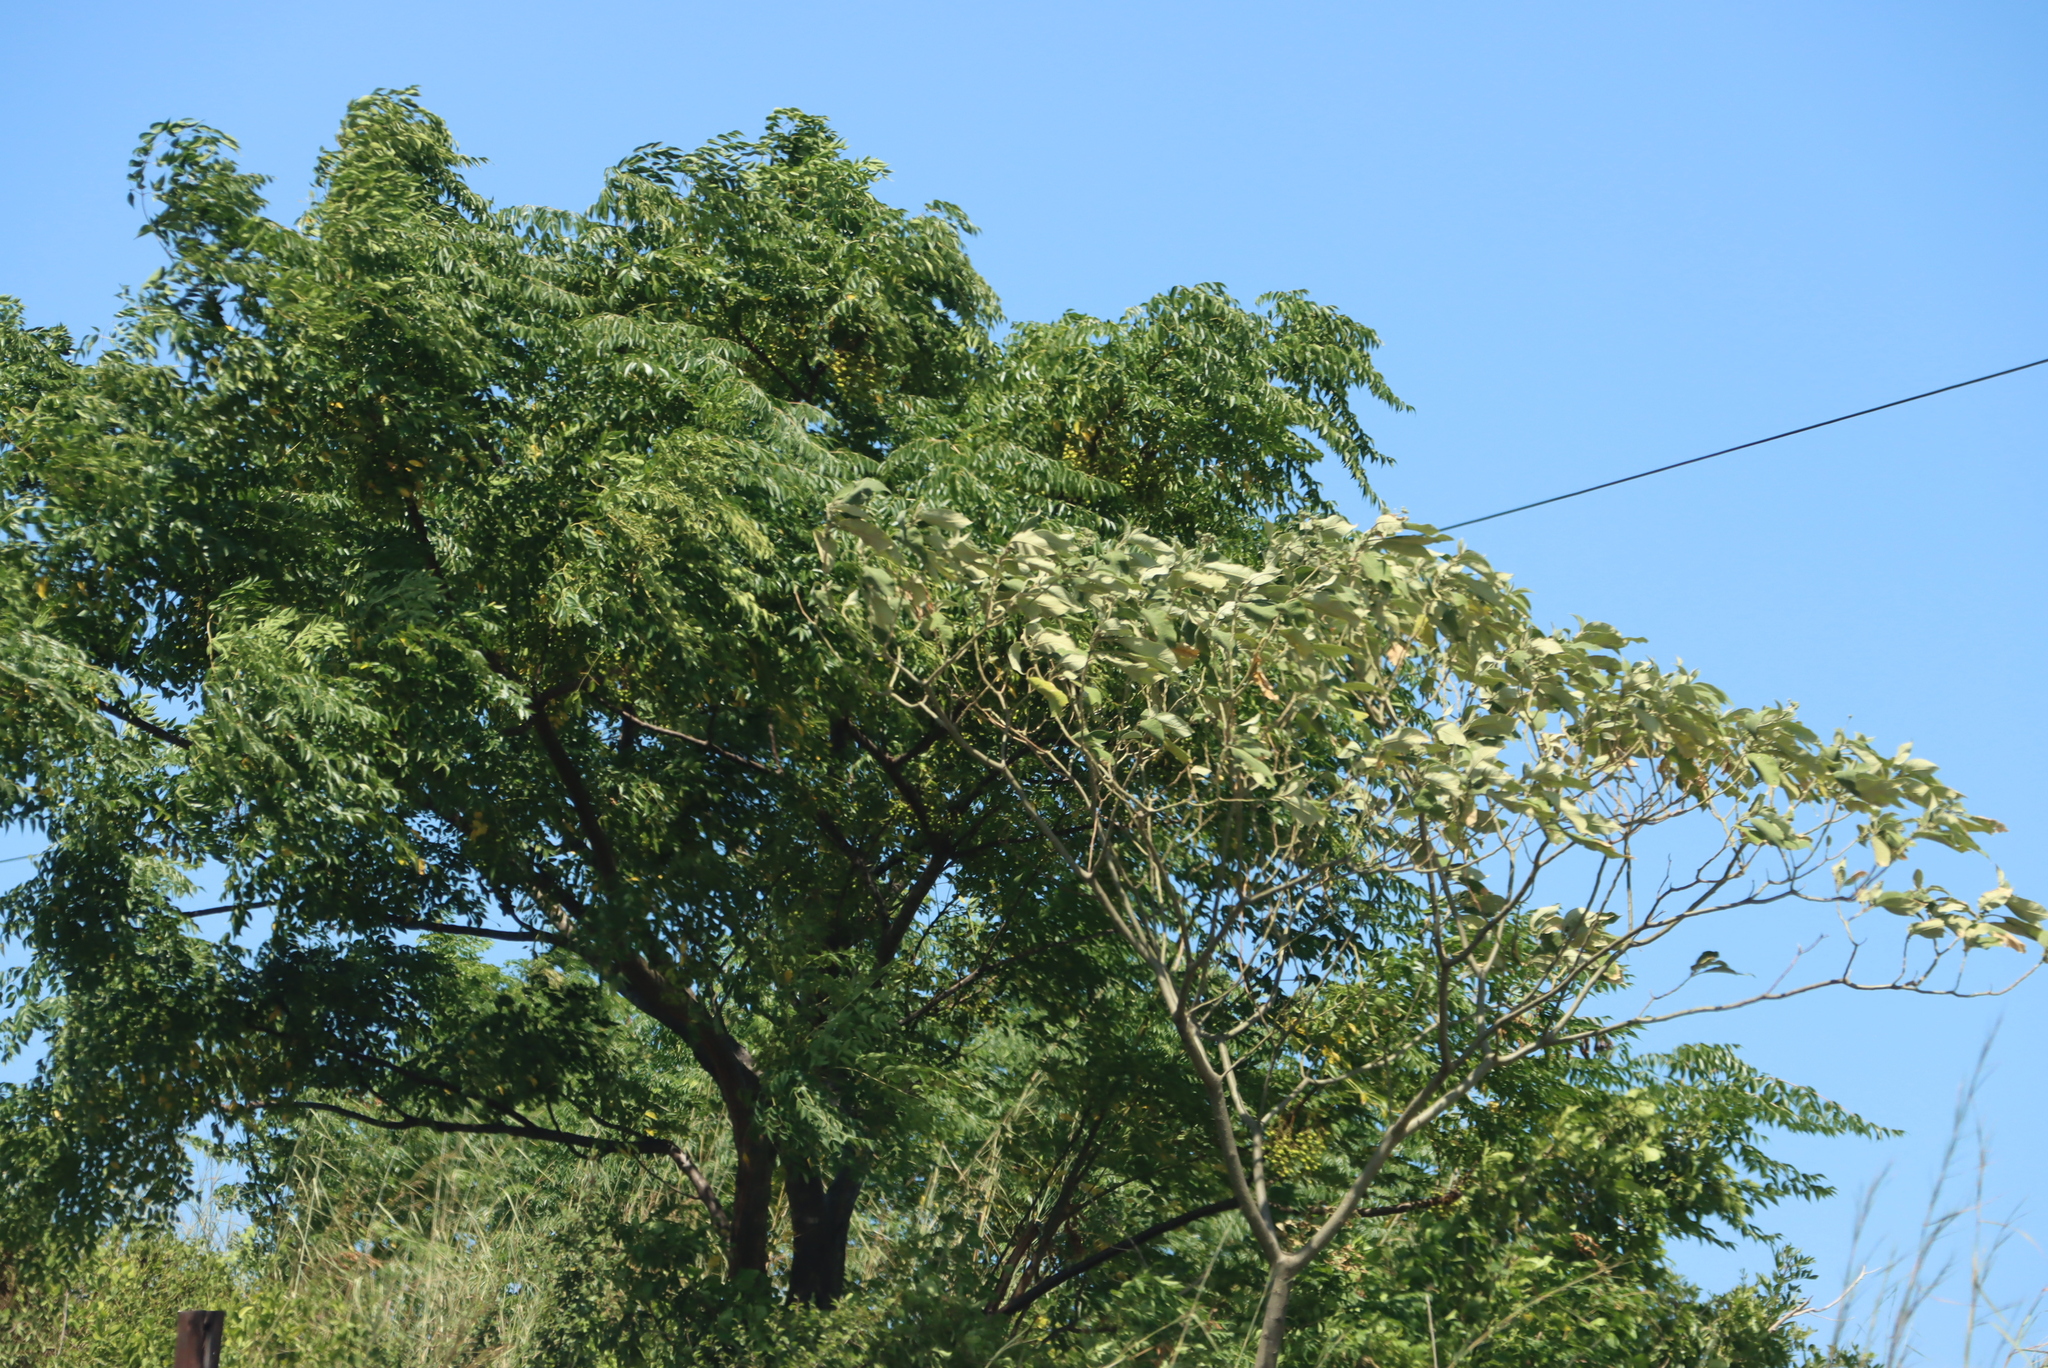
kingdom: Plantae
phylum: Tracheophyta
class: Magnoliopsida
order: Solanales
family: Solanaceae
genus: Solanum
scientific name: Solanum mauritianum
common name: Earleaf nightshade
